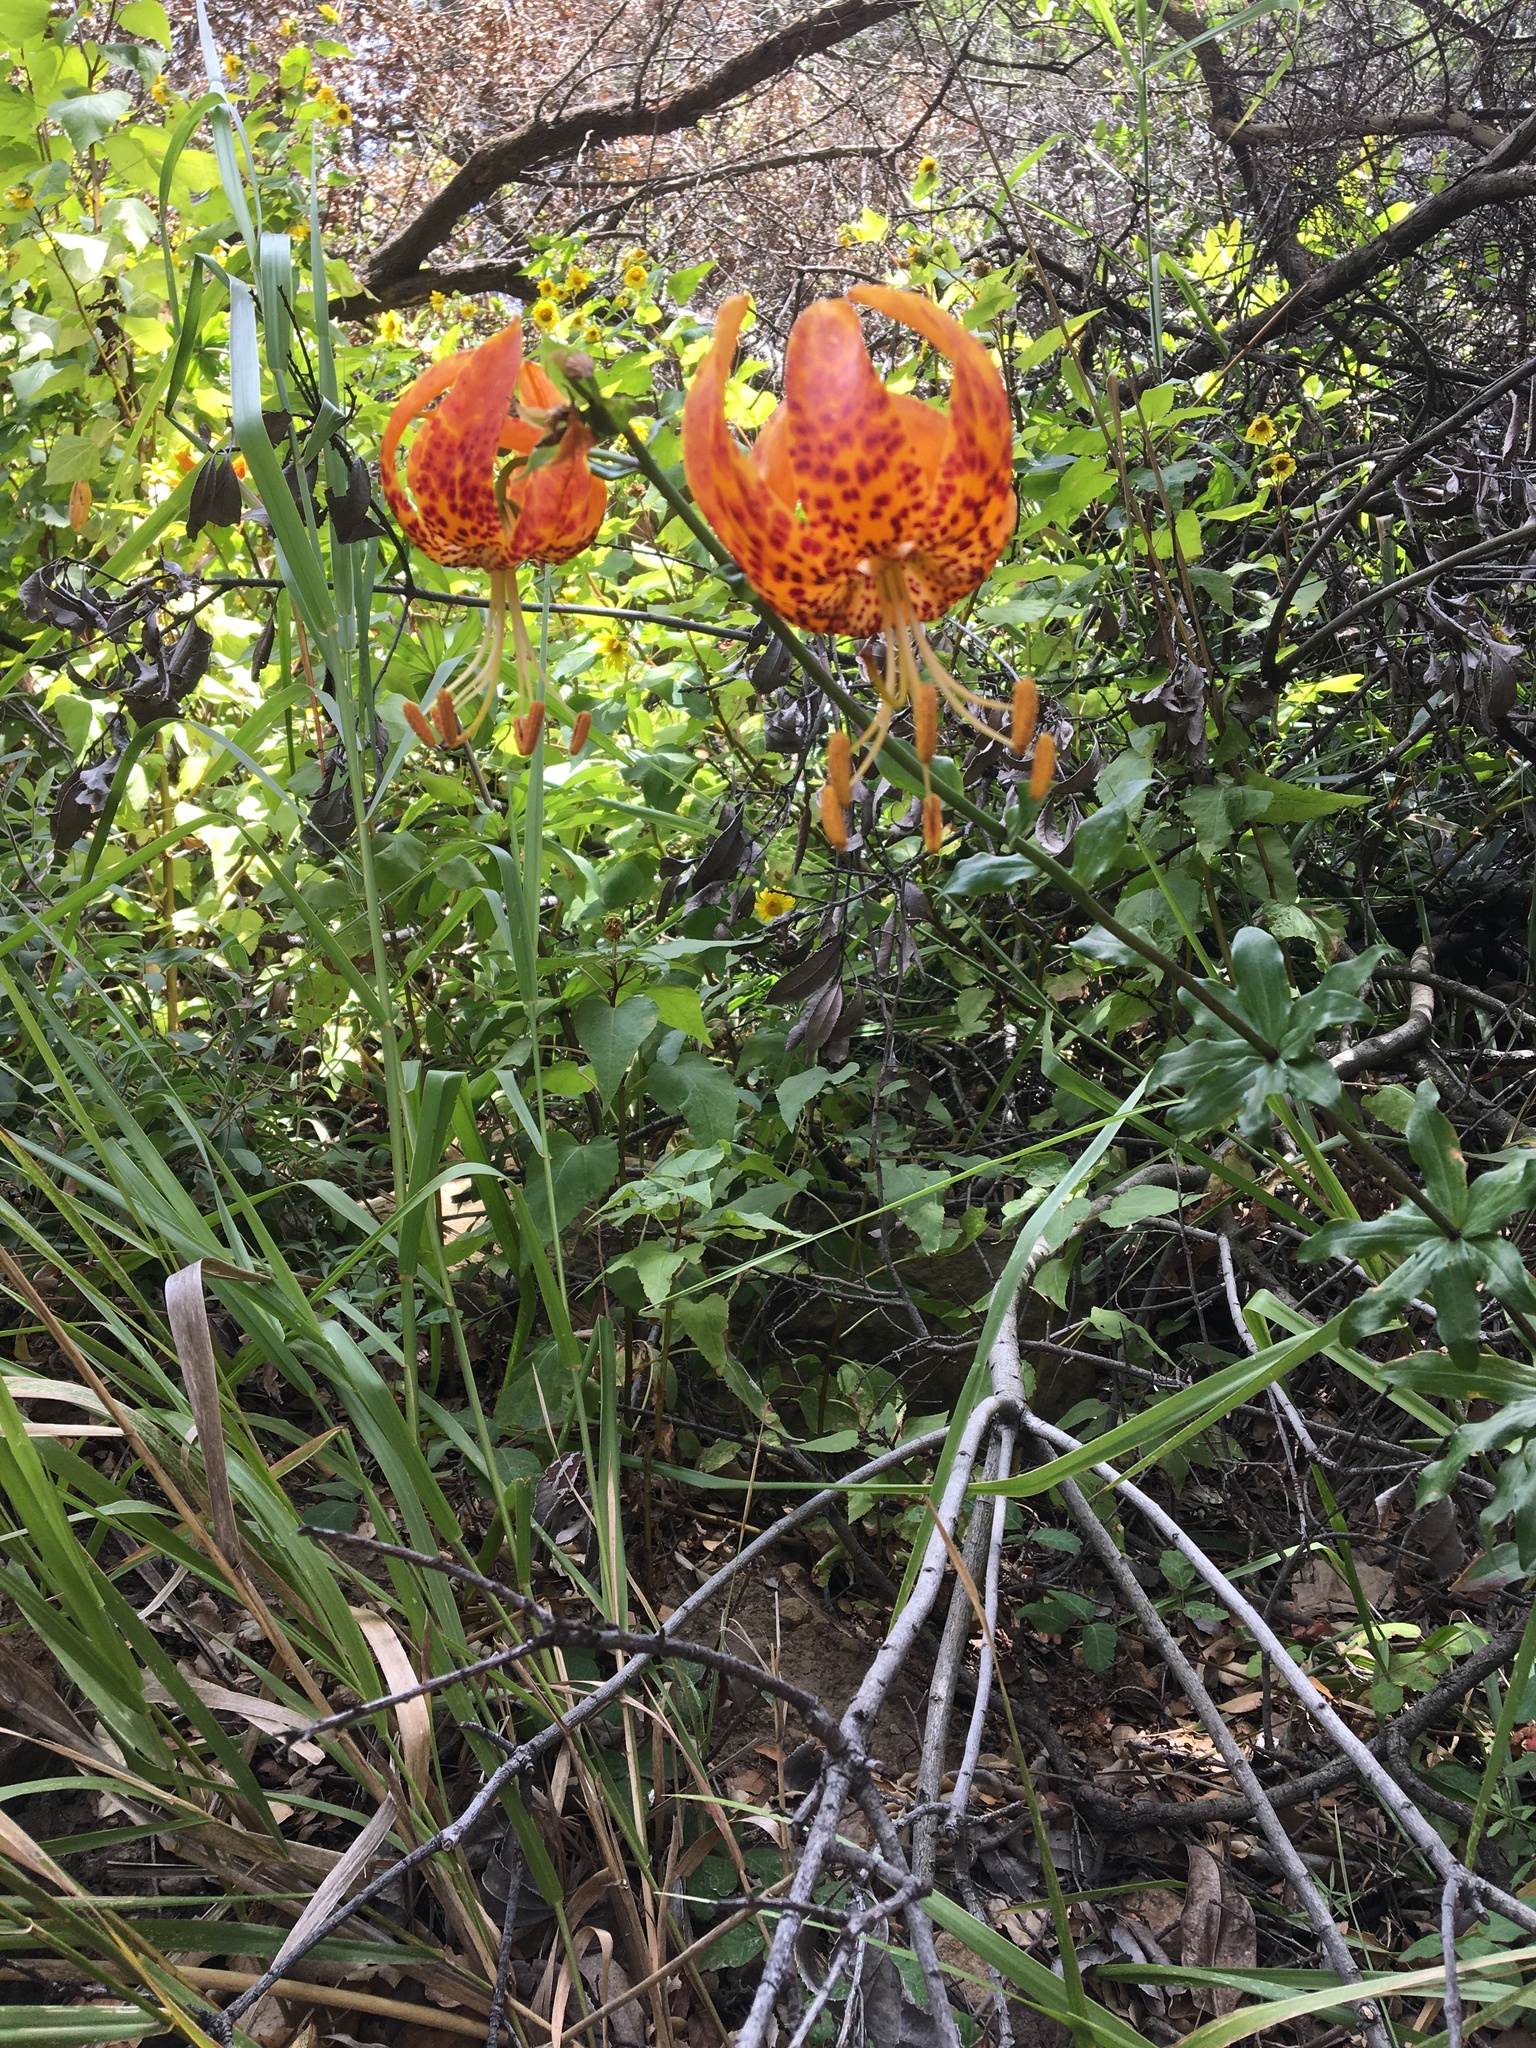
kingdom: Plantae
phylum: Tracheophyta
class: Liliopsida
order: Liliales
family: Liliaceae
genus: Lilium
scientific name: Lilium humboldtii
